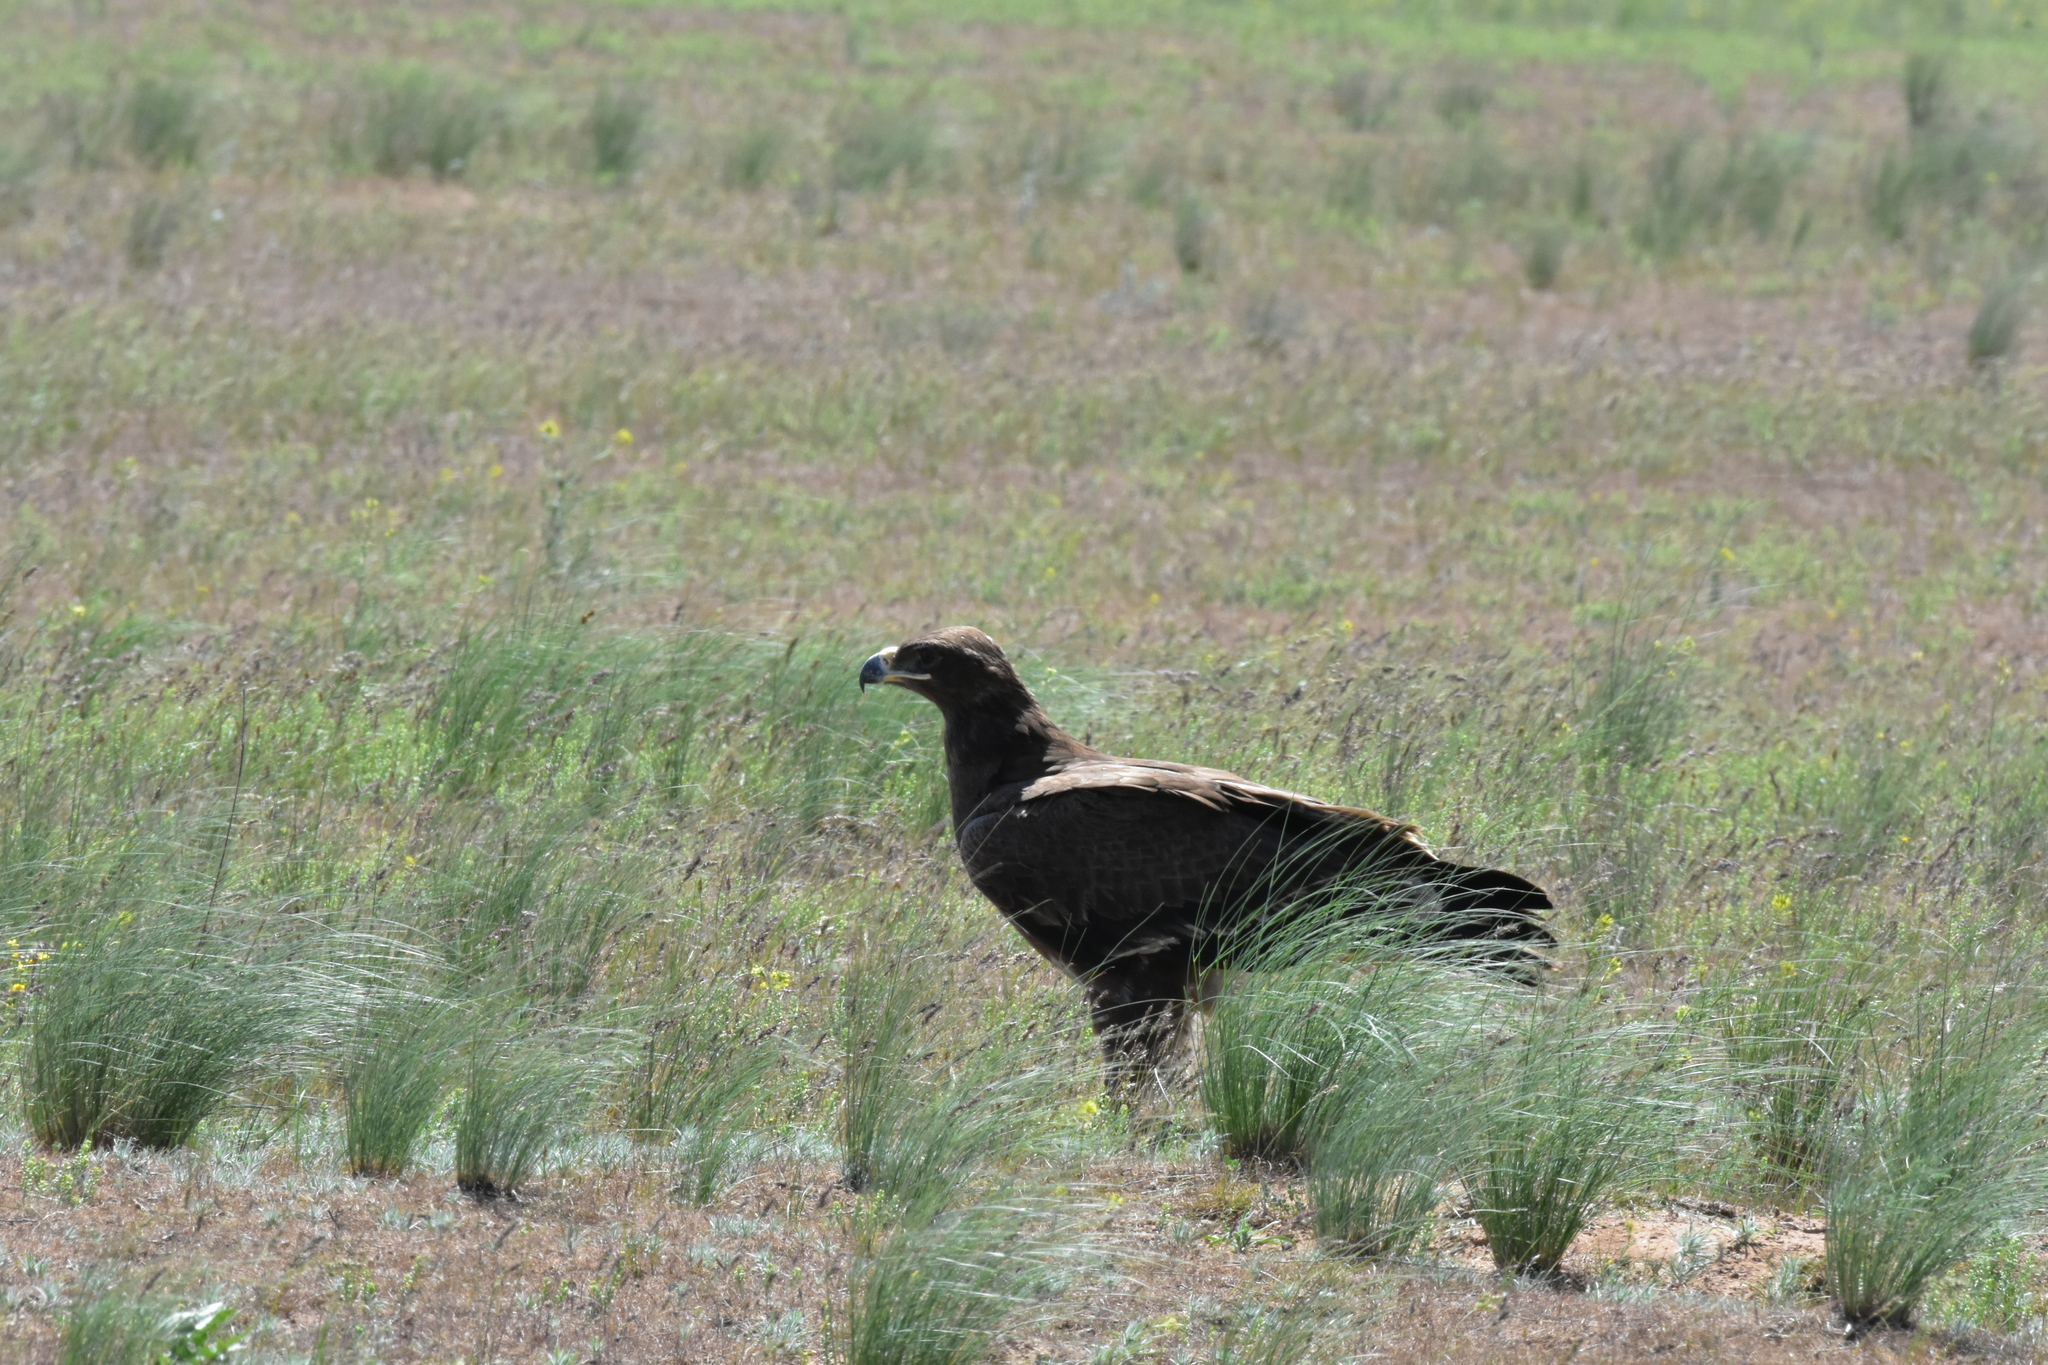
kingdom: Animalia
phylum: Chordata
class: Aves
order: Accipitriformes
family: Accipitridae
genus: Aquila
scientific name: Aquila nipalensis
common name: Steppe eagle
